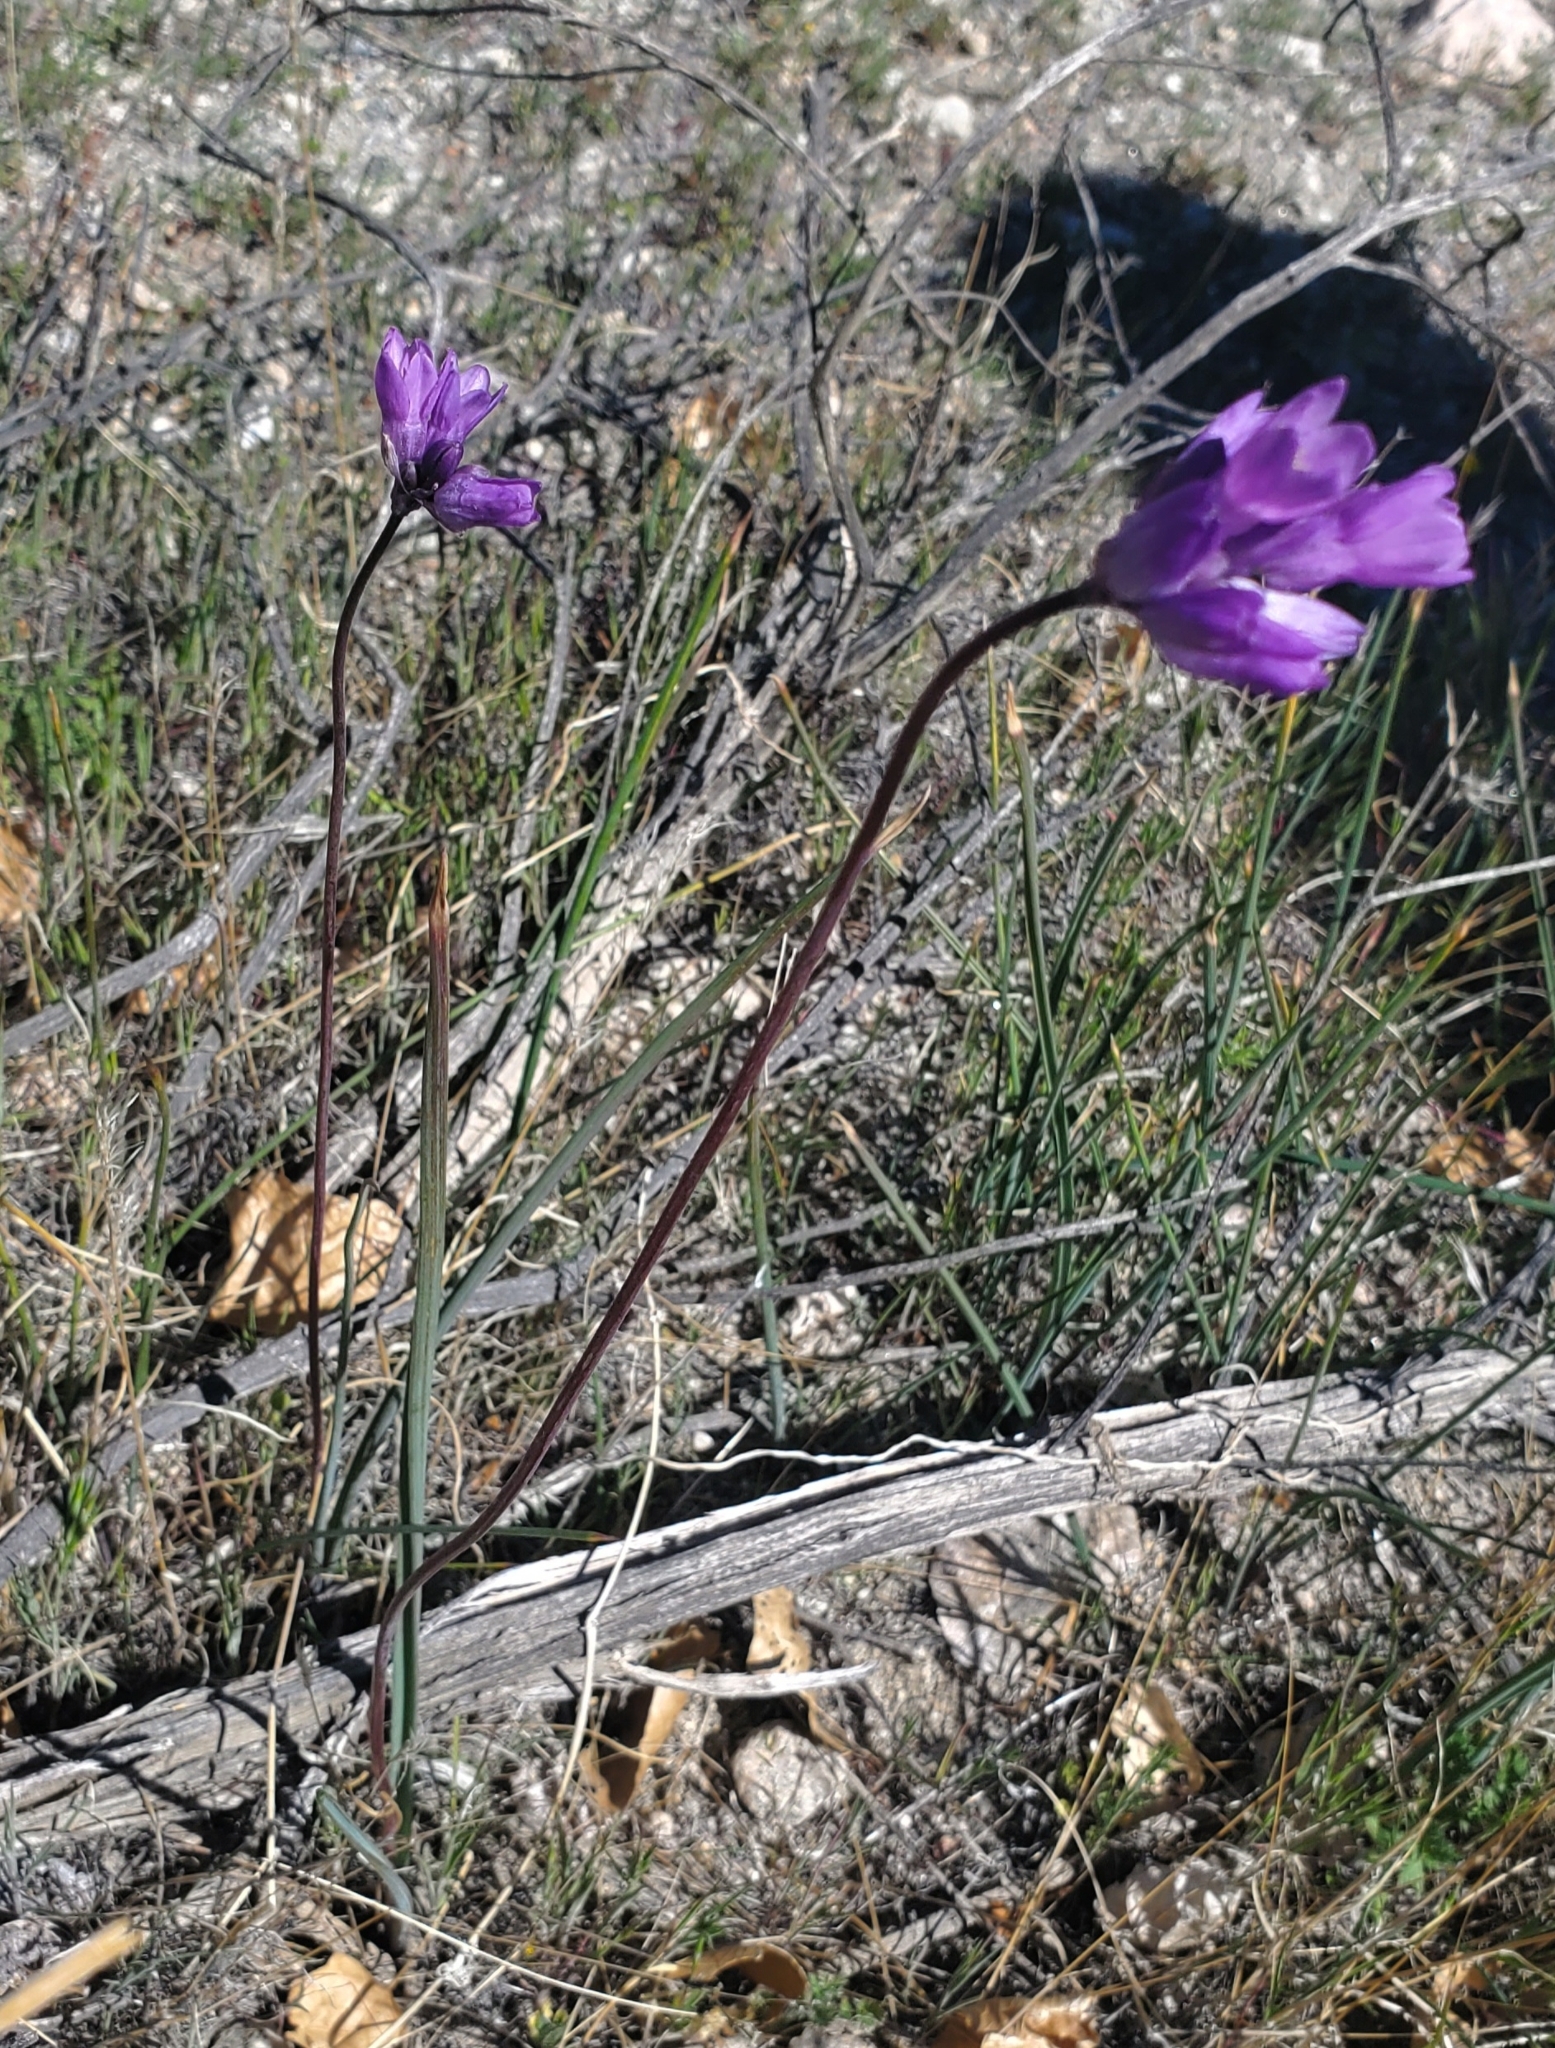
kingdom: Plantae
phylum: Tracheophyta
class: Liliopsida
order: Asparagales
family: Asparagaceae
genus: Dipterostemon
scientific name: Dipterostemon capitatus
